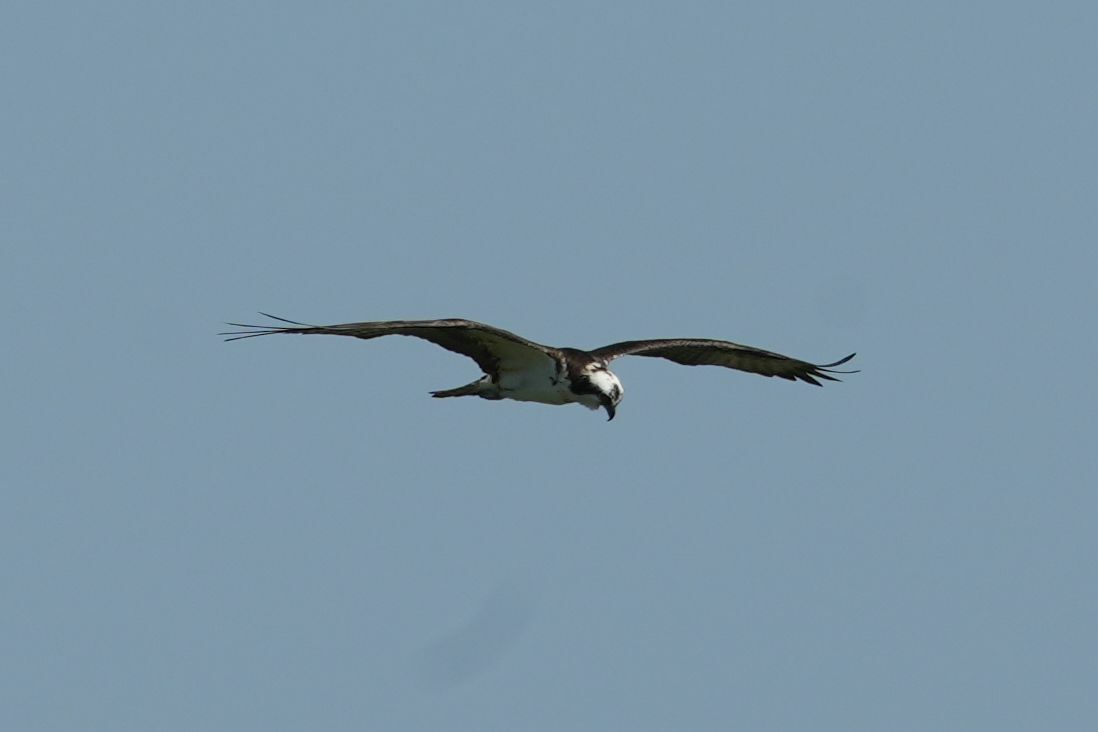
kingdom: Animalia
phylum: Chordata
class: Aves
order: Accipitriformes
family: Pandionidae
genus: Pandion
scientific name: Pandion haliaetus
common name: Osprey
